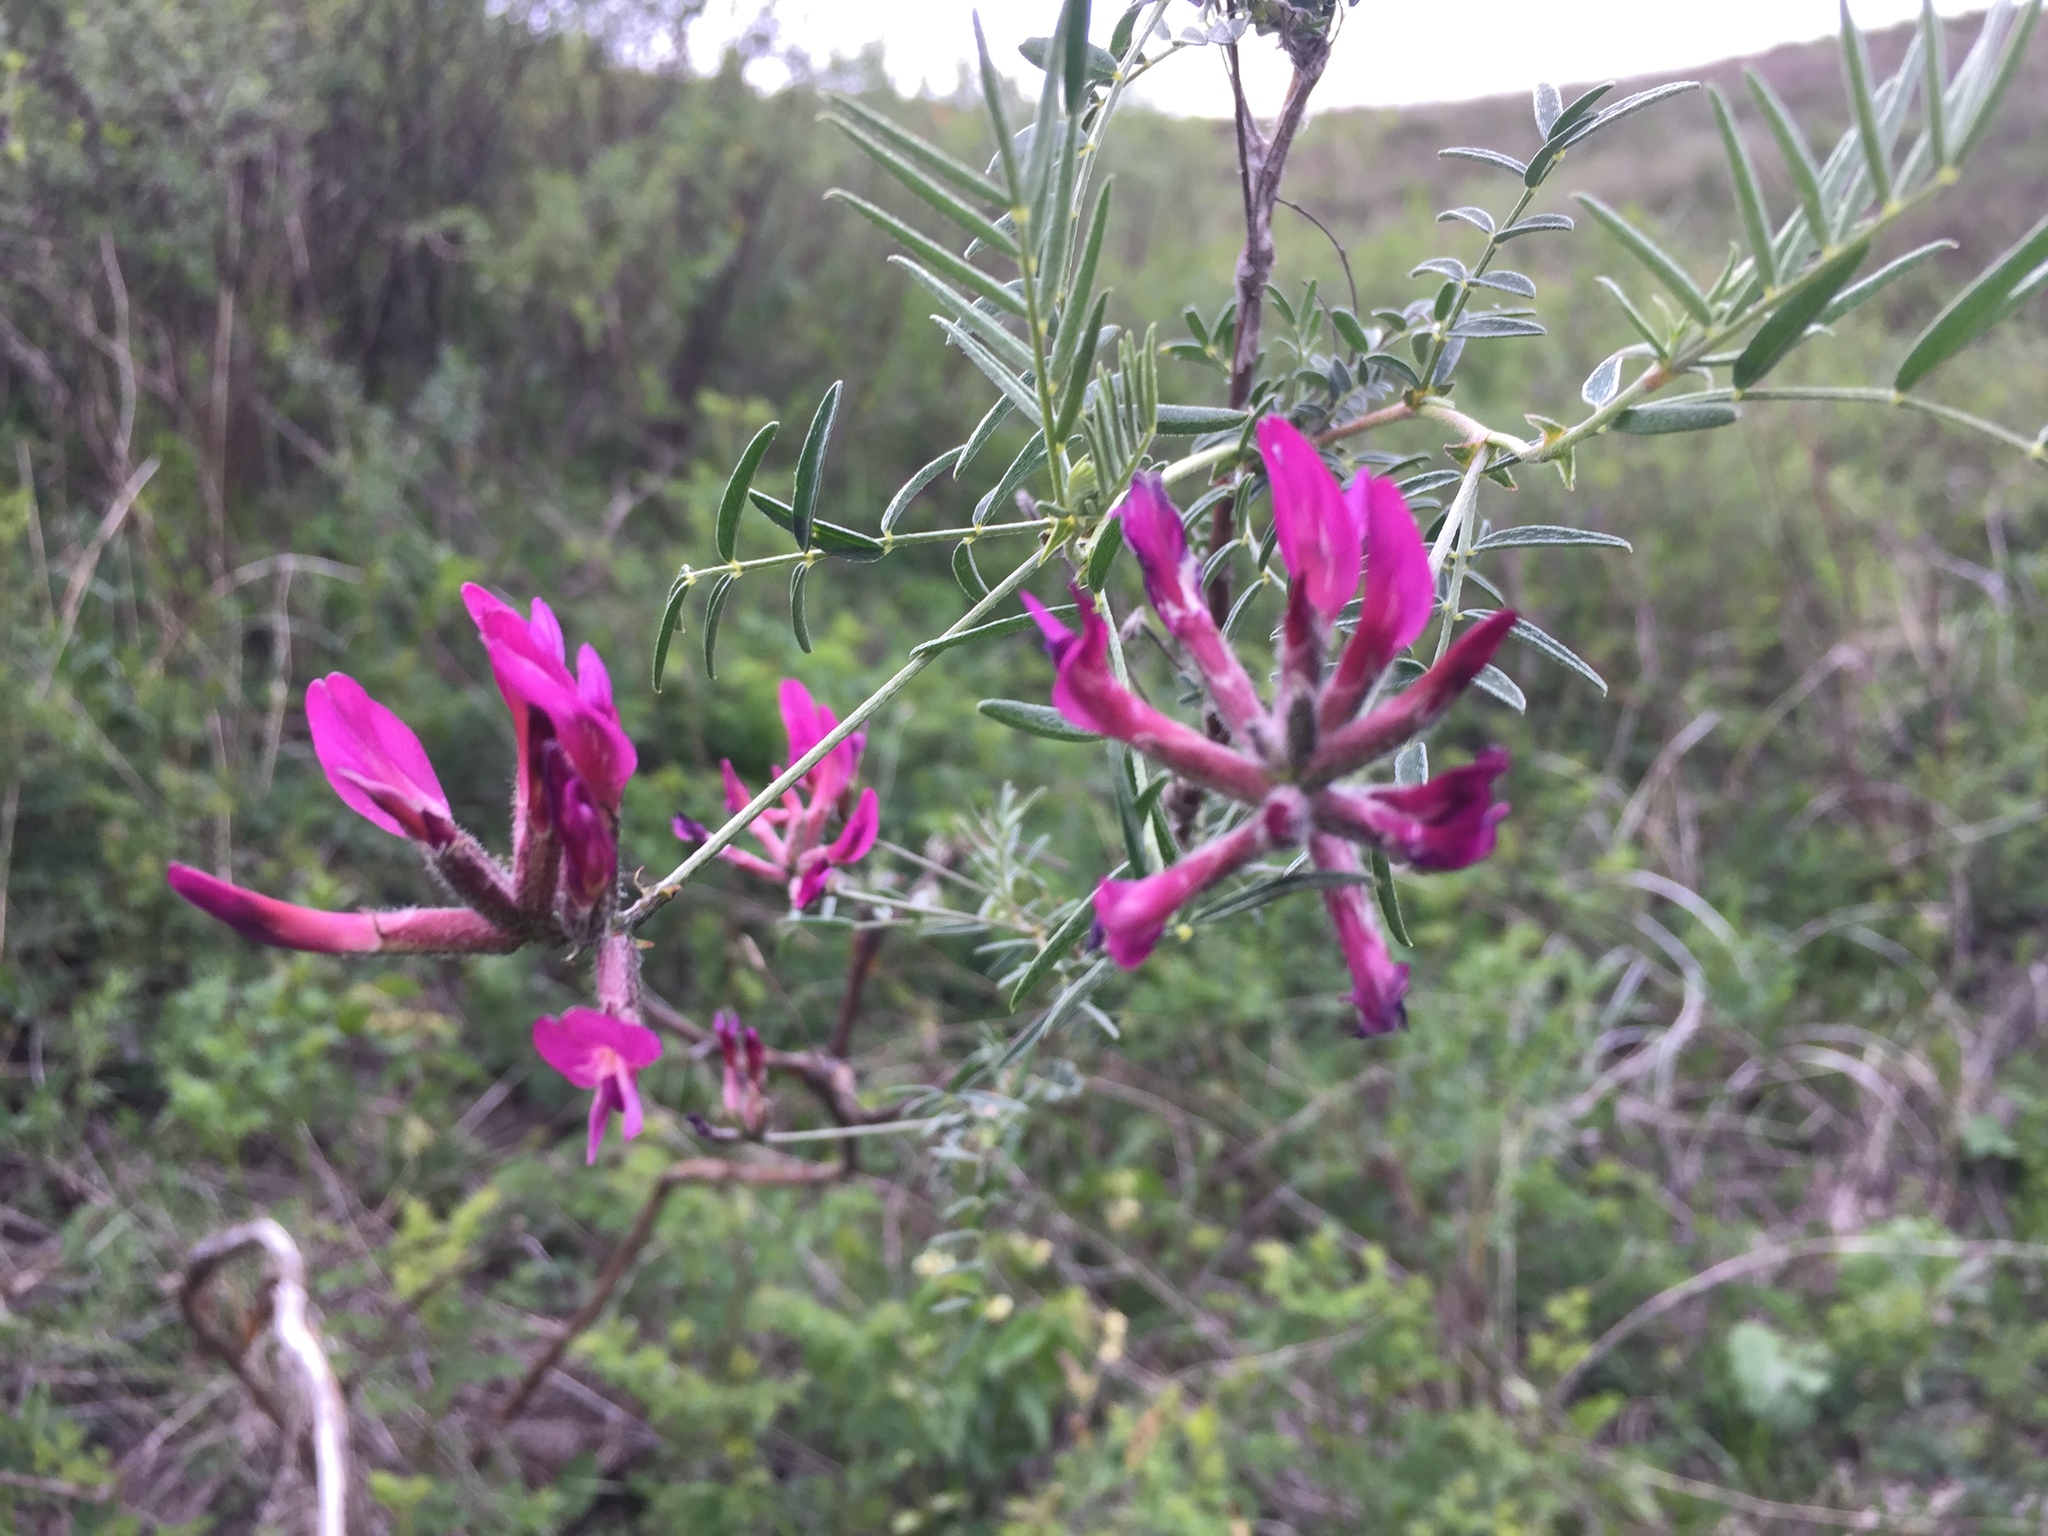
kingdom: Plantae
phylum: Tracheophyta
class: Magnoliopsida
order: Fabales
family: Fabaceae
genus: Astragalus
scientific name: Astragalus cornutus
